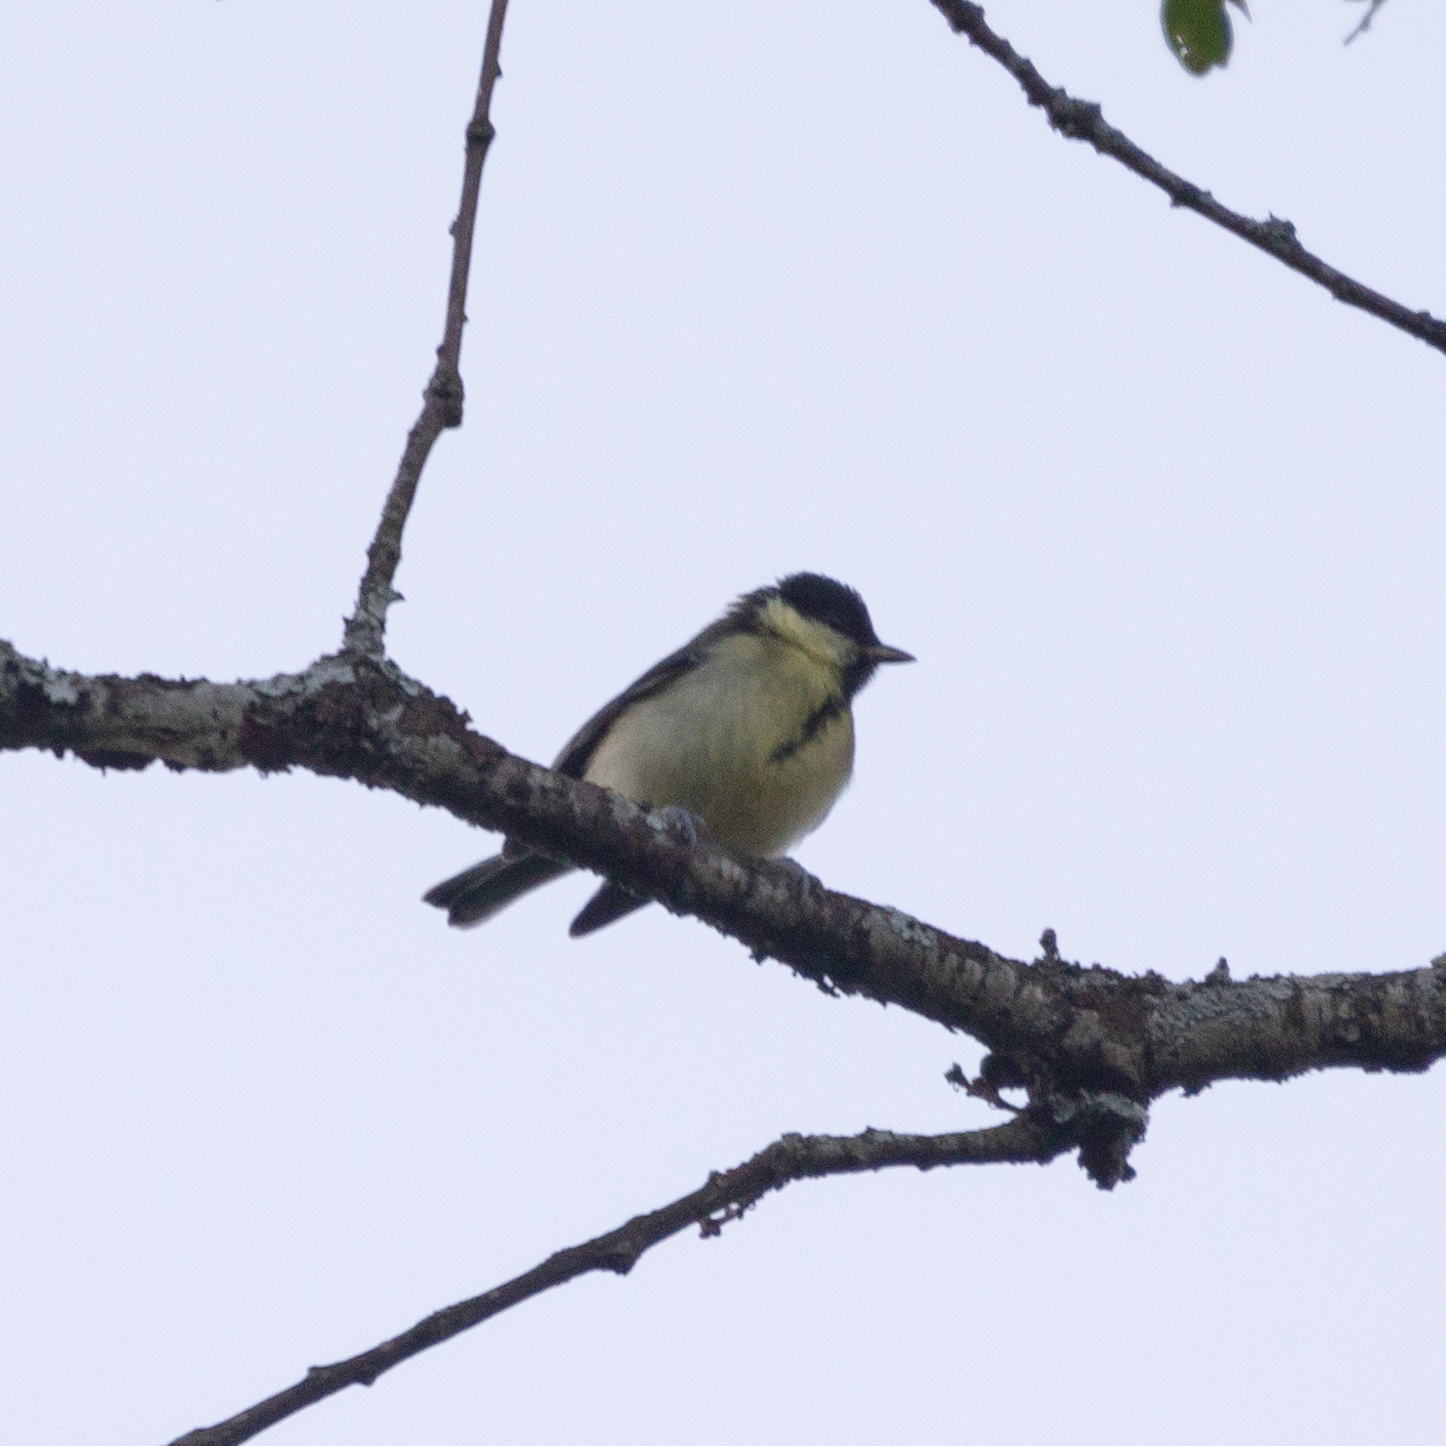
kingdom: Animalia
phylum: Chordata
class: Aves
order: Passeriformes
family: Paridae
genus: Parus
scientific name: Parus major
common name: Great tit
